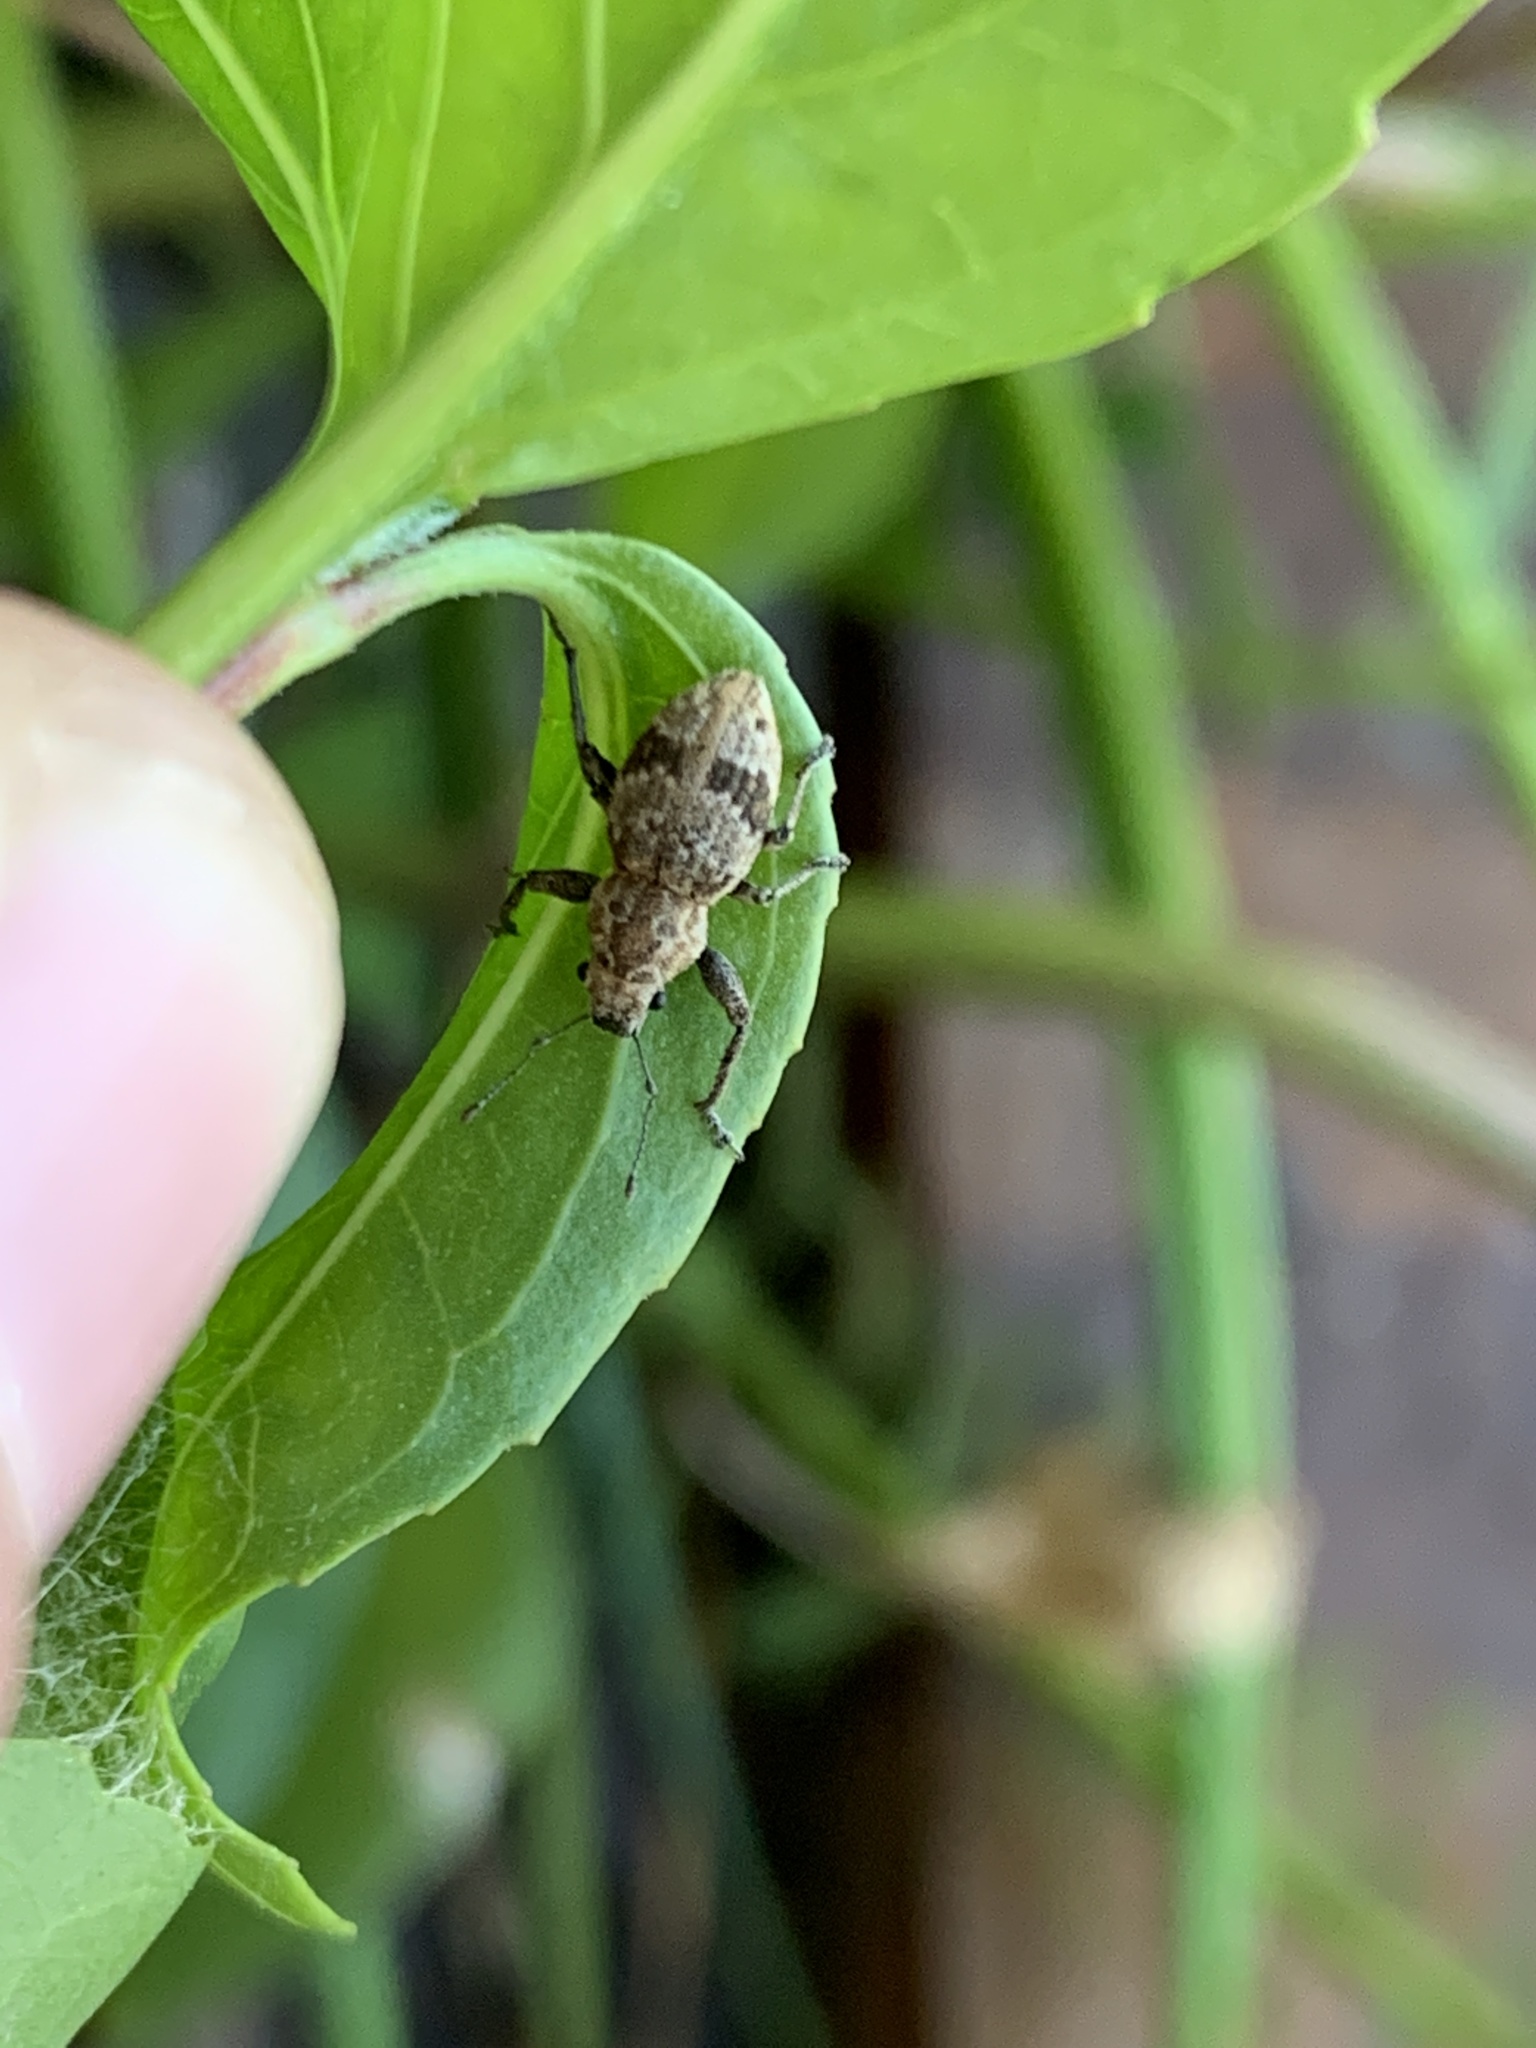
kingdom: Animalia
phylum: Arthropoda
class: Insecta
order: Coleoptera
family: Curculionidae
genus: Pantomorus
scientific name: Pantomorus
